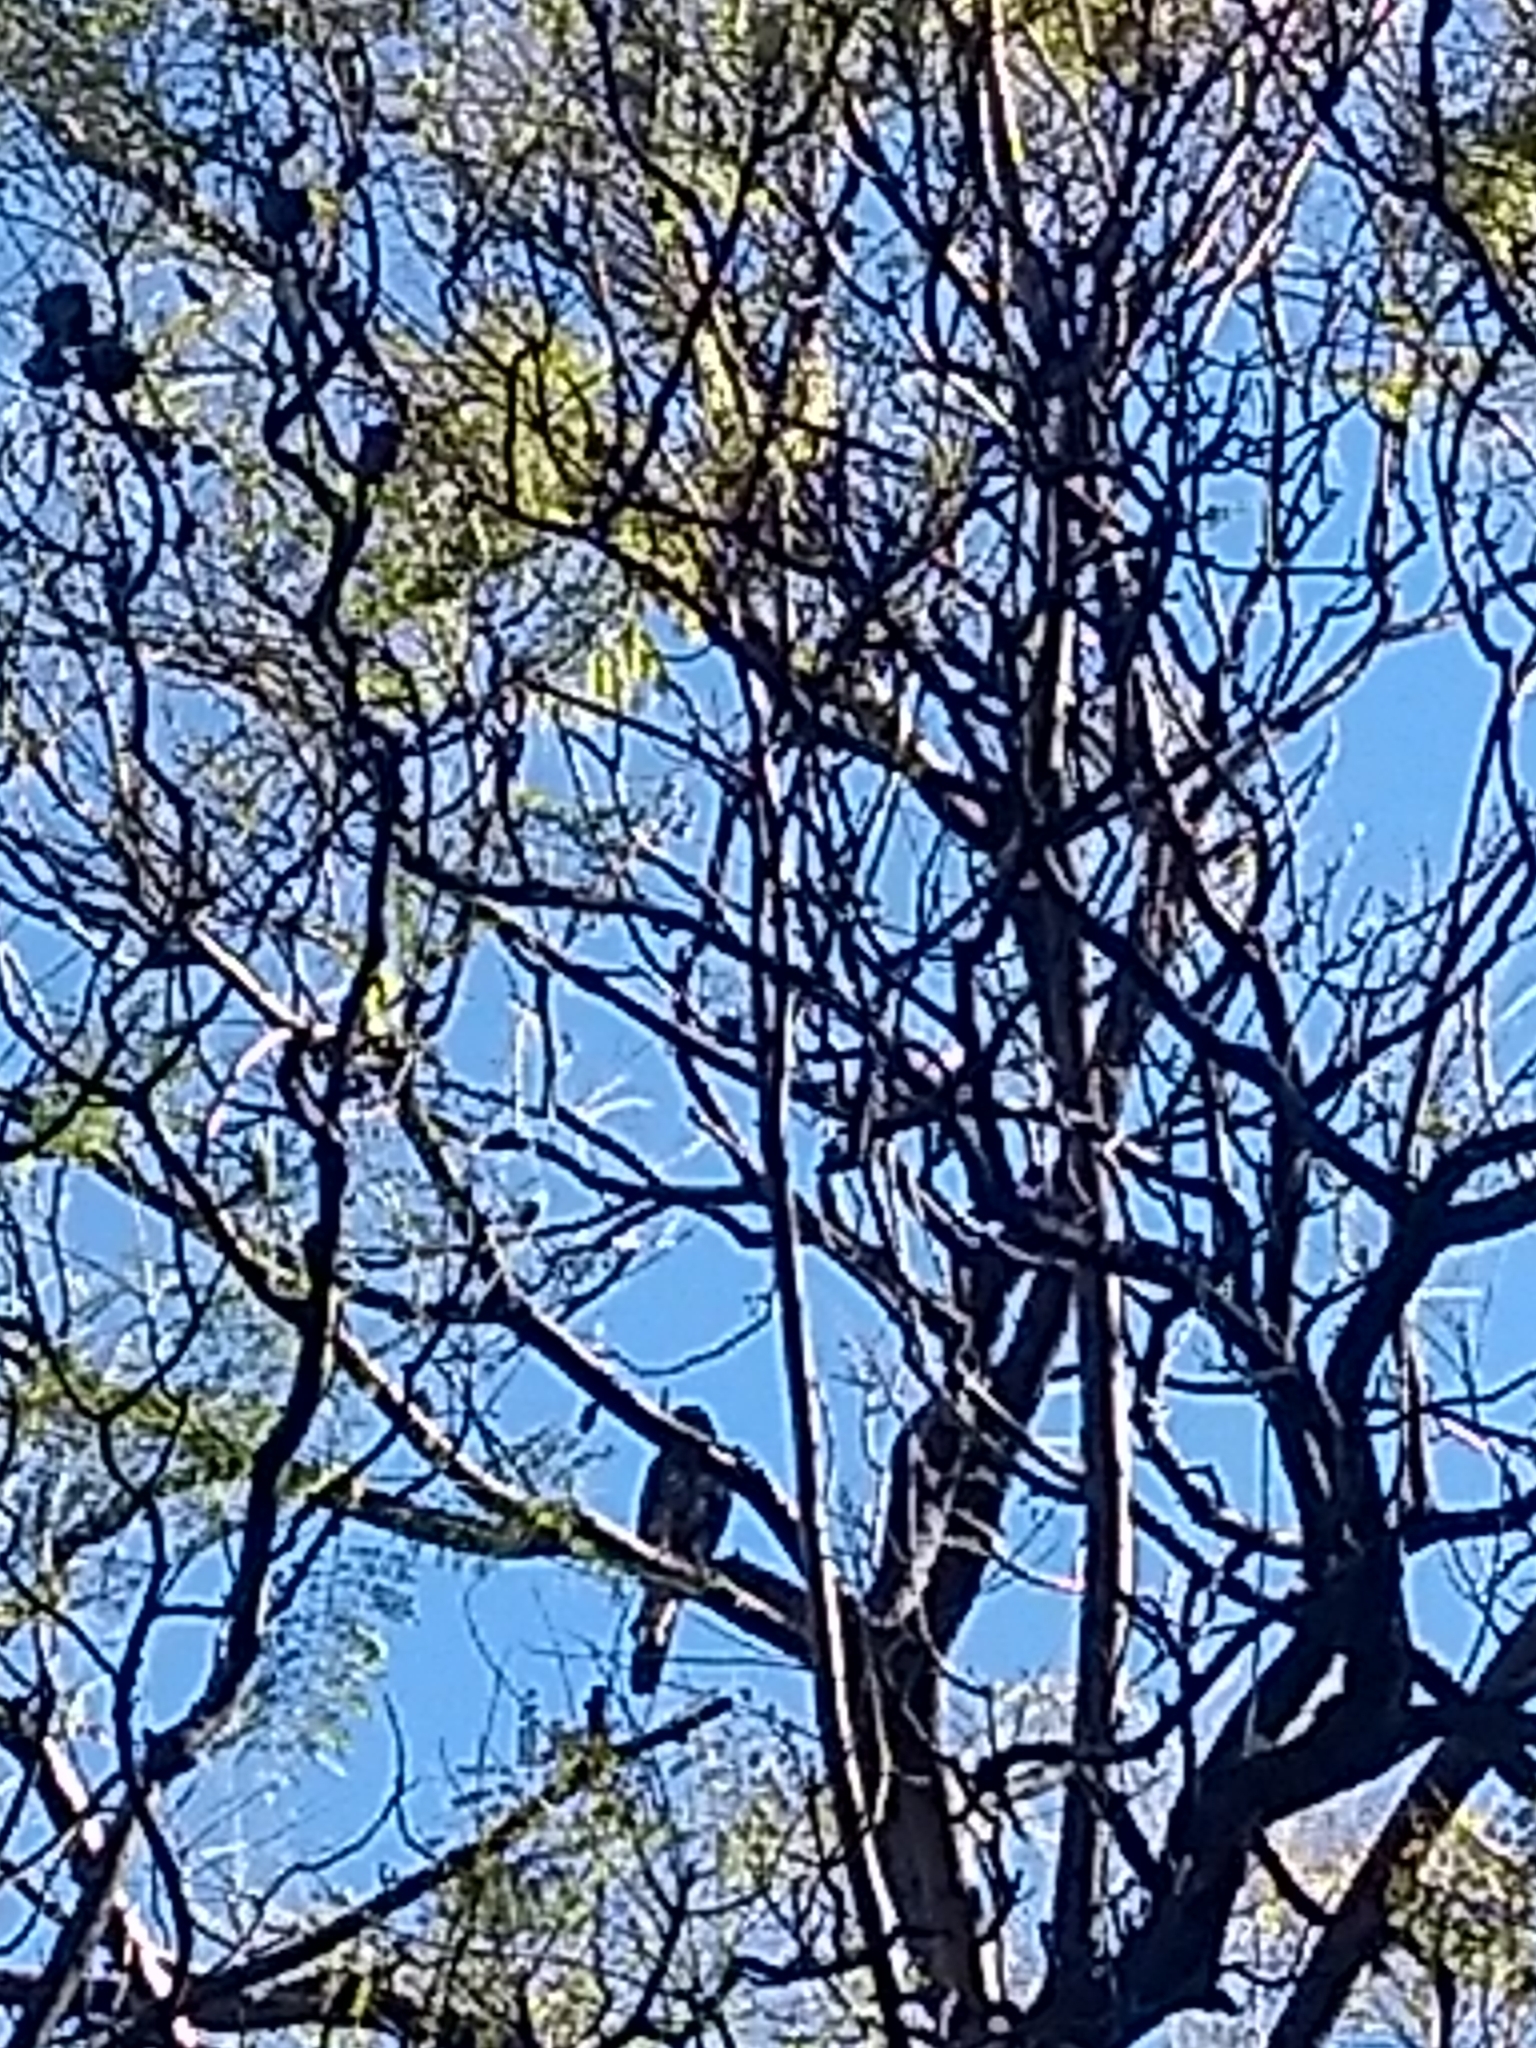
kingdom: Animalia
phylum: Chordata
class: Aves
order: Accipitriformes
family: Accipitridae
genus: Parabuteo
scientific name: Parabuteo unicinctus
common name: Harris's hawk
